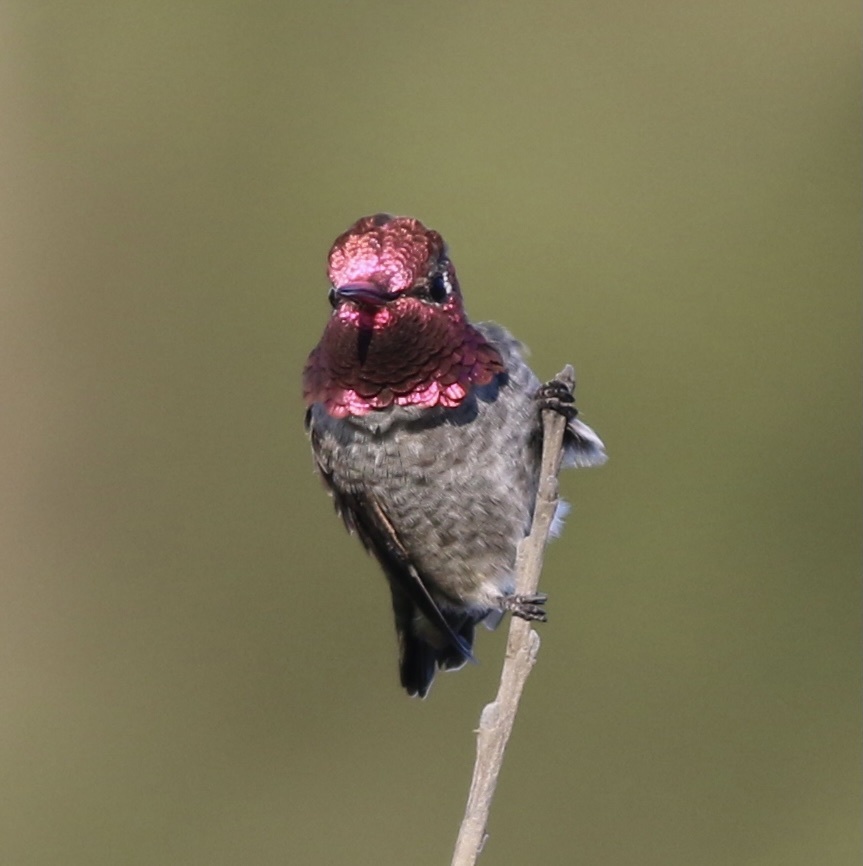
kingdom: Animalia
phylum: Chordata
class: Aves
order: Apodiformes
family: Trochilidae
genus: Calypte
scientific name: Calypte anna
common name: Anna's hummingbird
